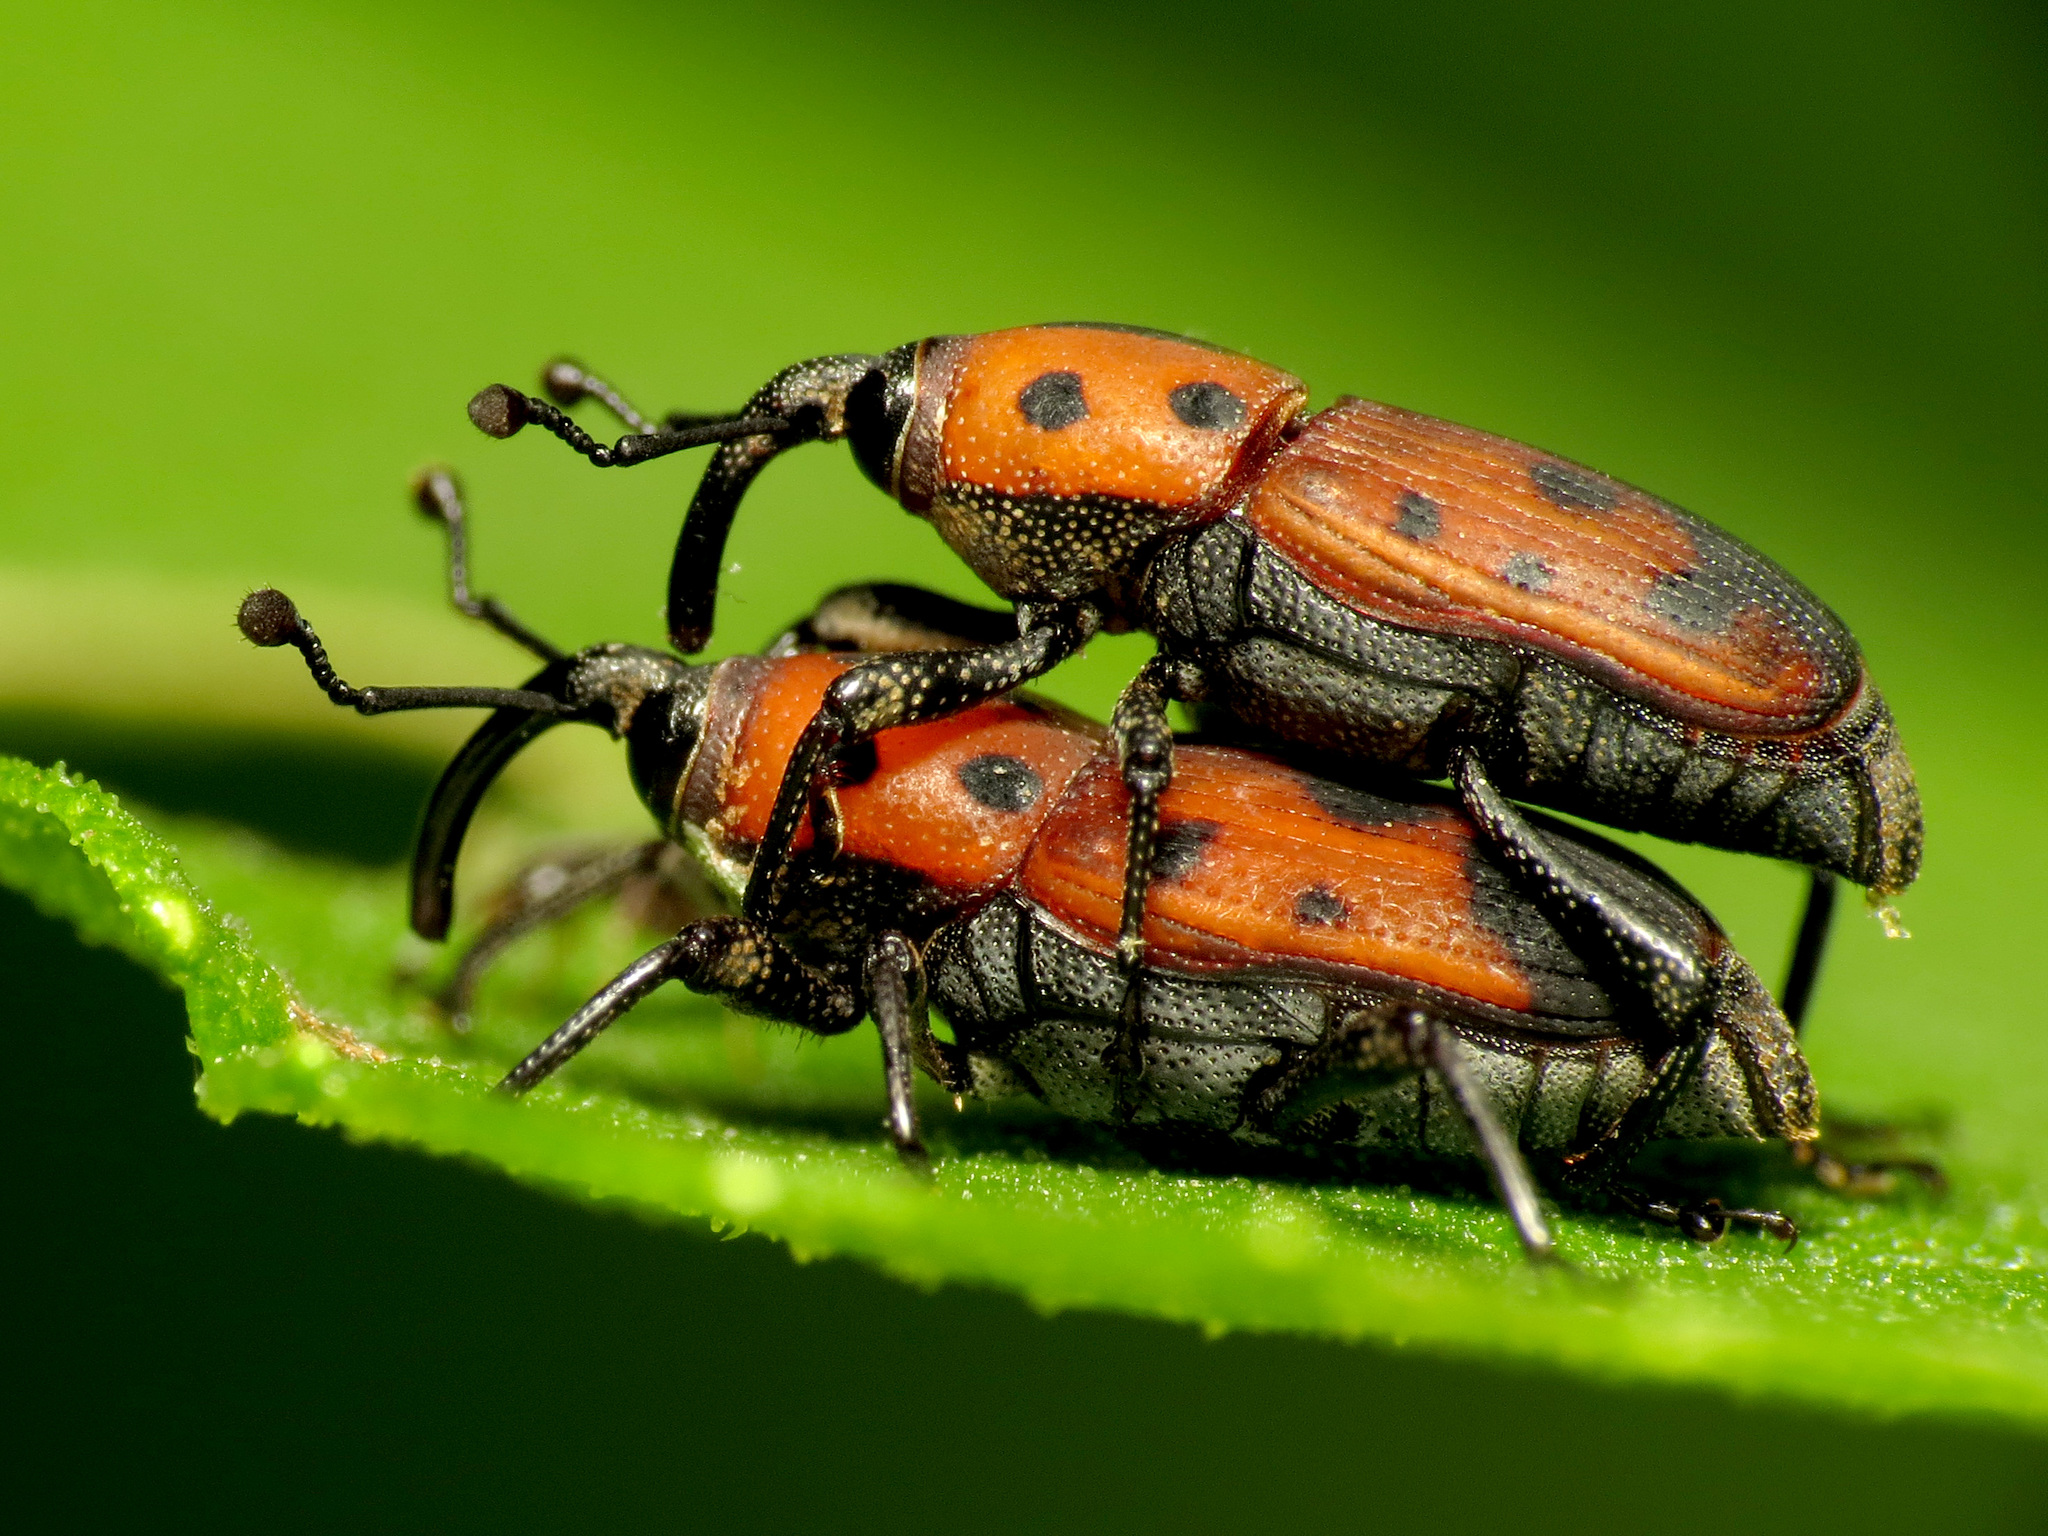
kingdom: Animalia
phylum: Arthropoda
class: Insecta
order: Coleoptera
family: Dryophthoridae
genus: Rhodobaenus
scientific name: Rhodobaenus quinquepunctatus
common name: Cocklebur weevil
